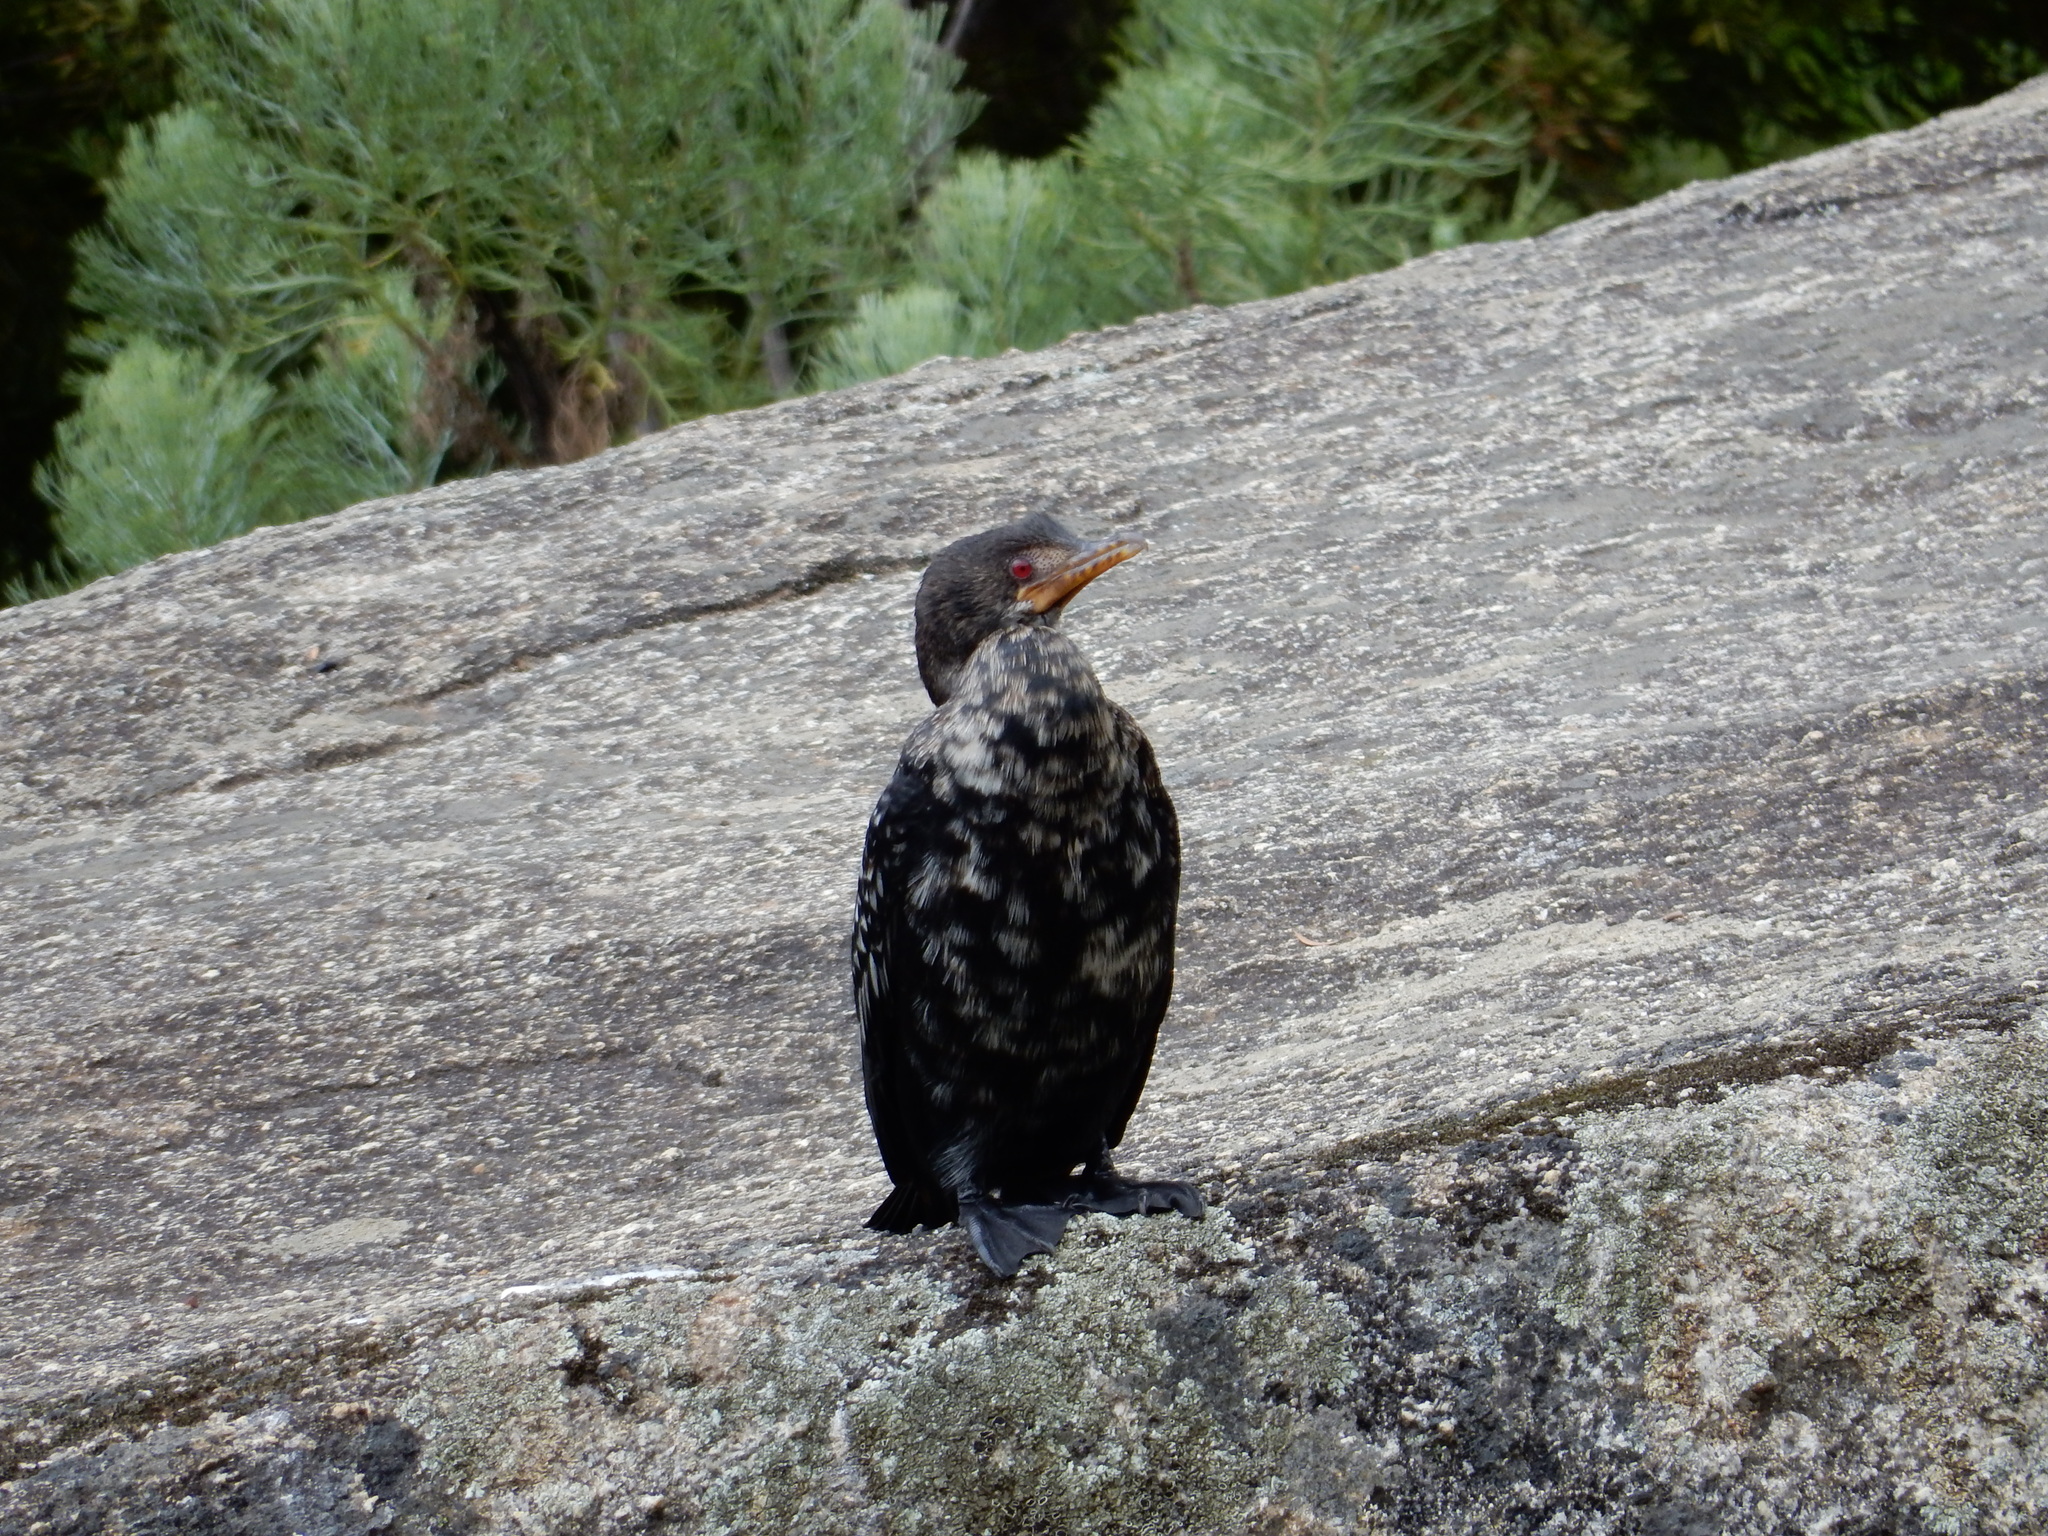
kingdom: Animalia
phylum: Chordata
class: Aves
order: Suliformes
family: Phalacrocoracidae
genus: Microcarbo
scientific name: Microcarbo africanus
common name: Long-tailed cormorant
